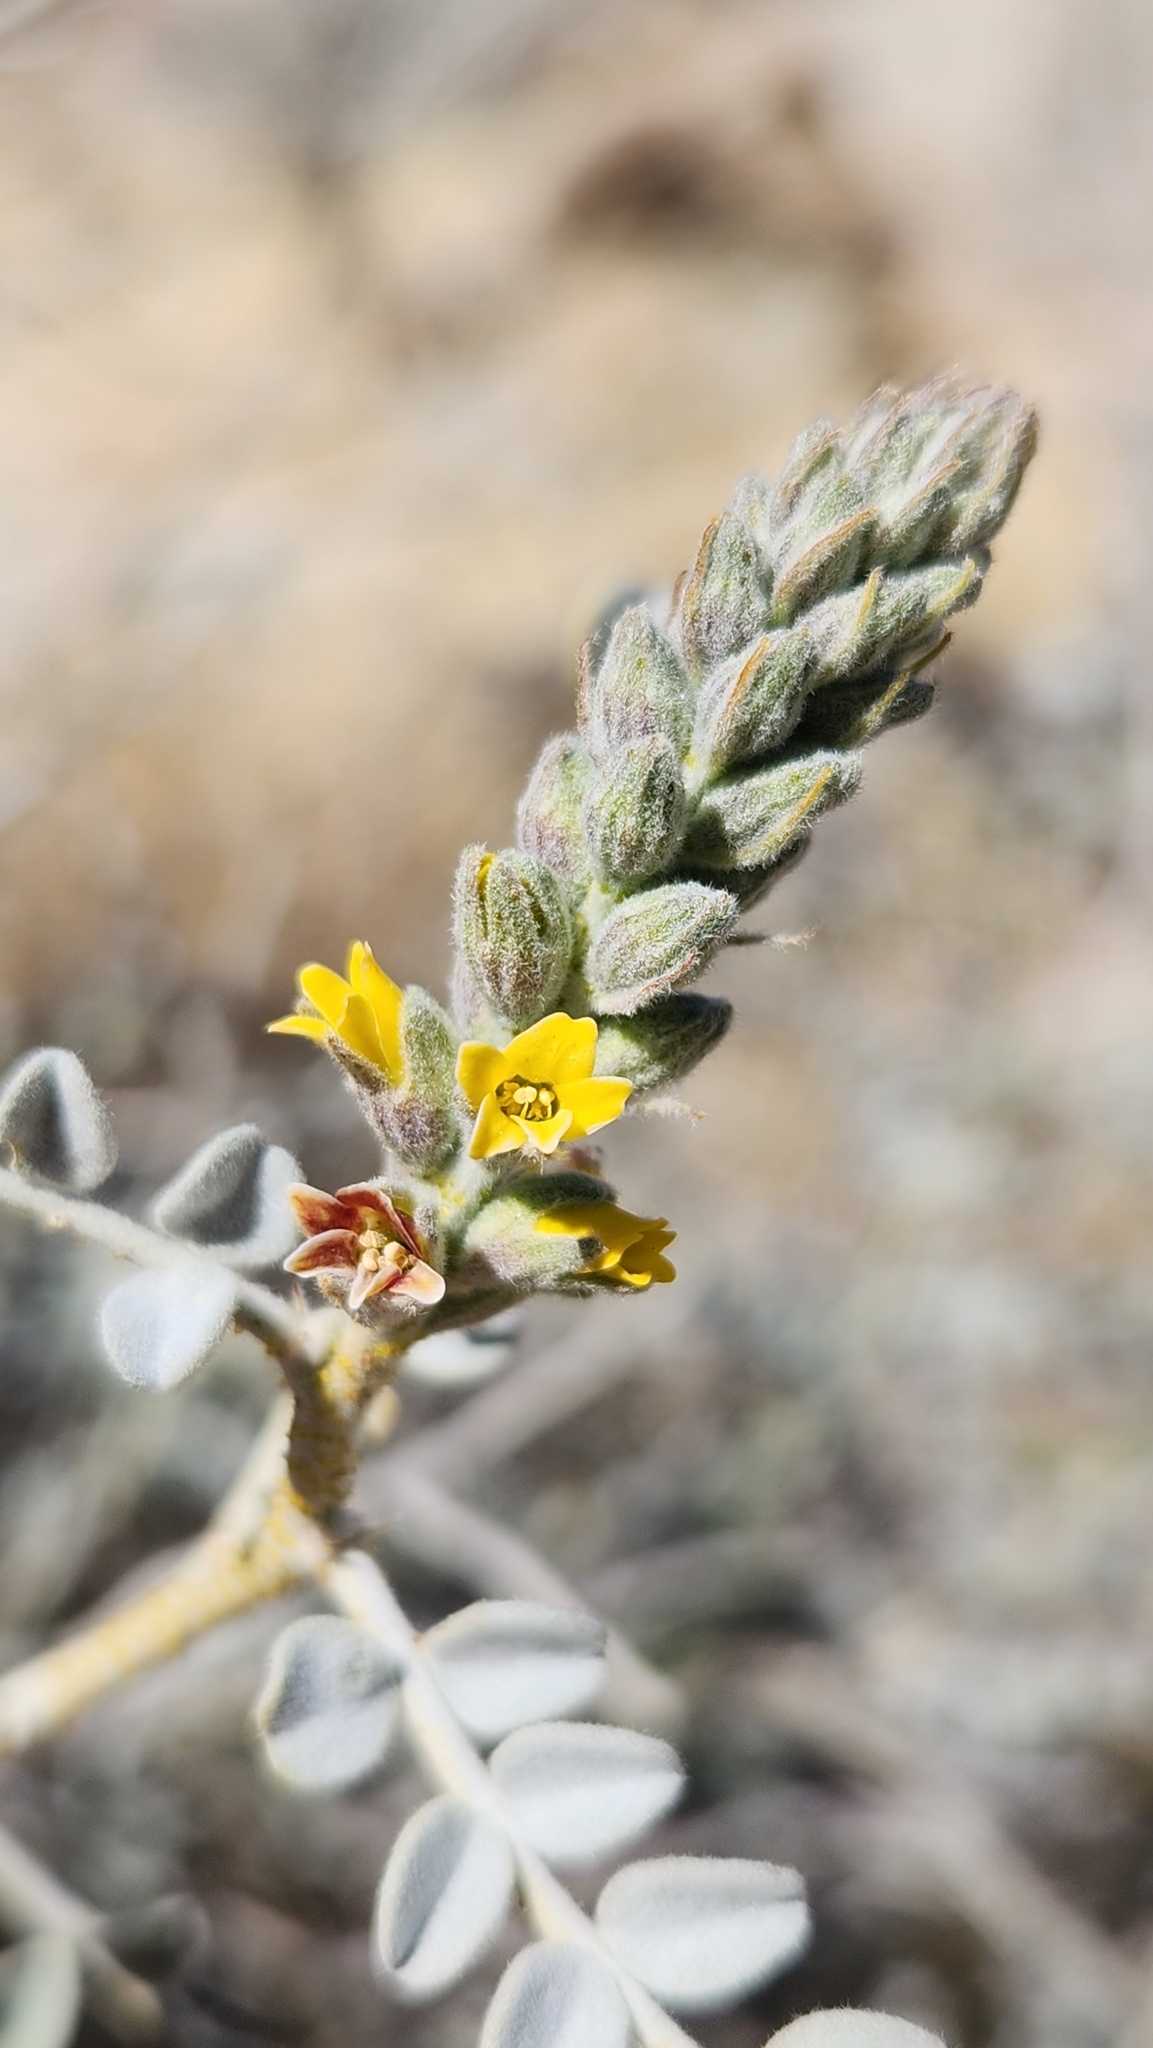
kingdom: Plantae
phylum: Tracheophyta
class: Magnoliopsida
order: Fabales
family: Fabaceae
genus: Errazurizia
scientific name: Errazurizia megacarpa
